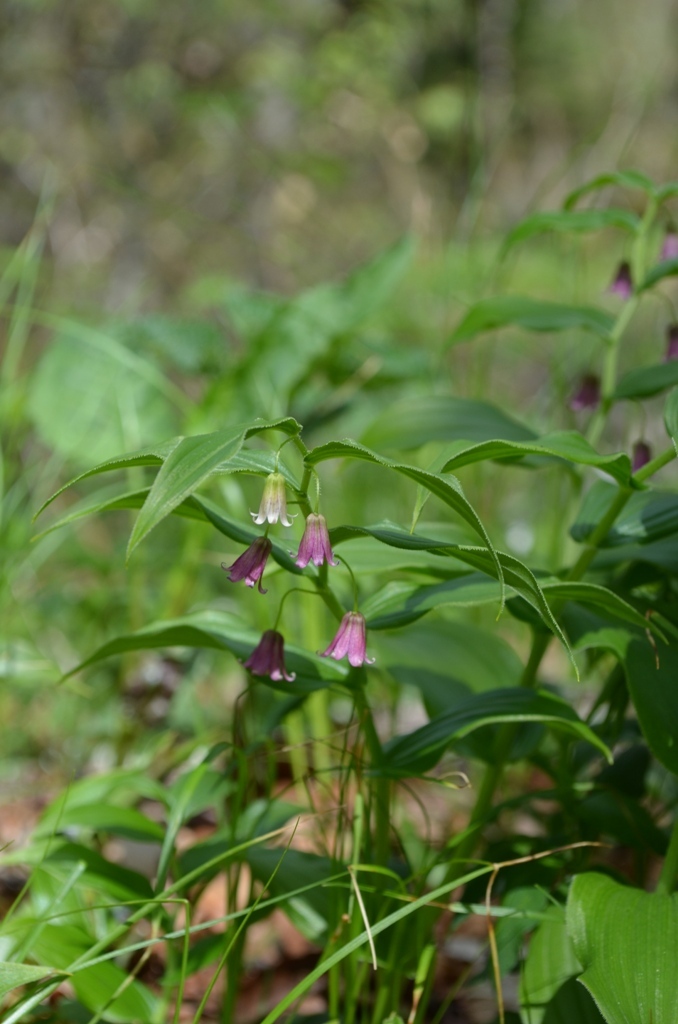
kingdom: Plantae
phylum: Tracheophyta
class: Liliopsida
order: Liliales
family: Liliaceae
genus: Streptopus
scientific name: Streptopus lanceolatus
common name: Rose mandarin
